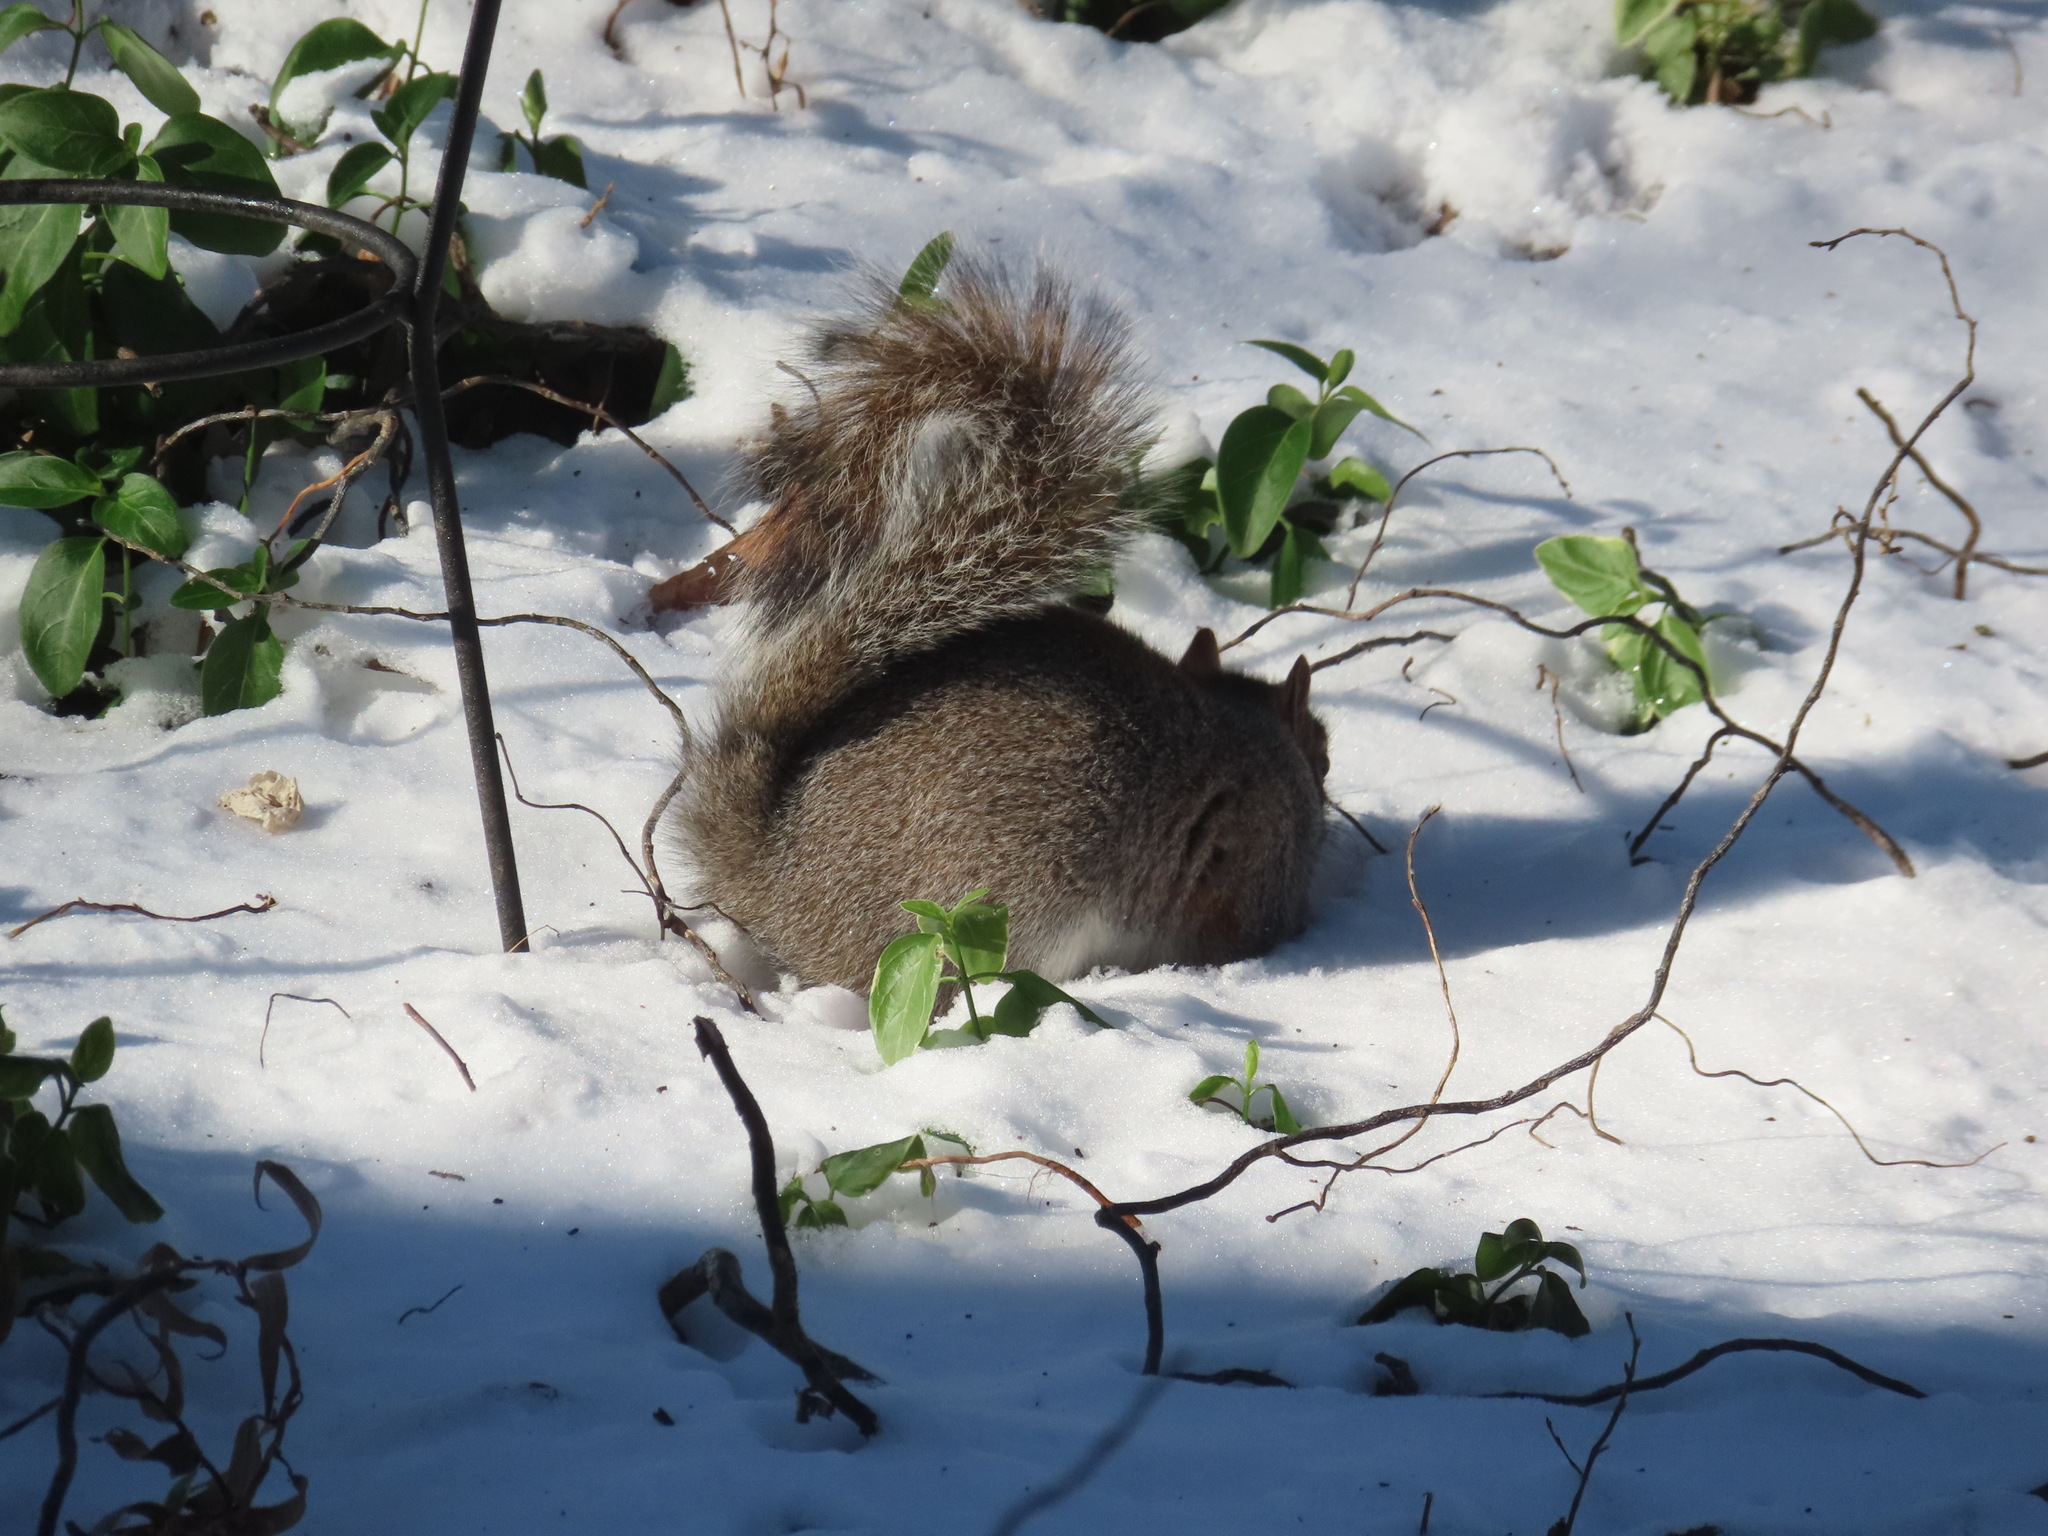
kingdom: Animalia
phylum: Chordata
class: Mammalia
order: Rodentia
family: Sciuridae
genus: Sciurus
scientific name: Sciurus carolinensis
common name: Eastern gray squirrel
